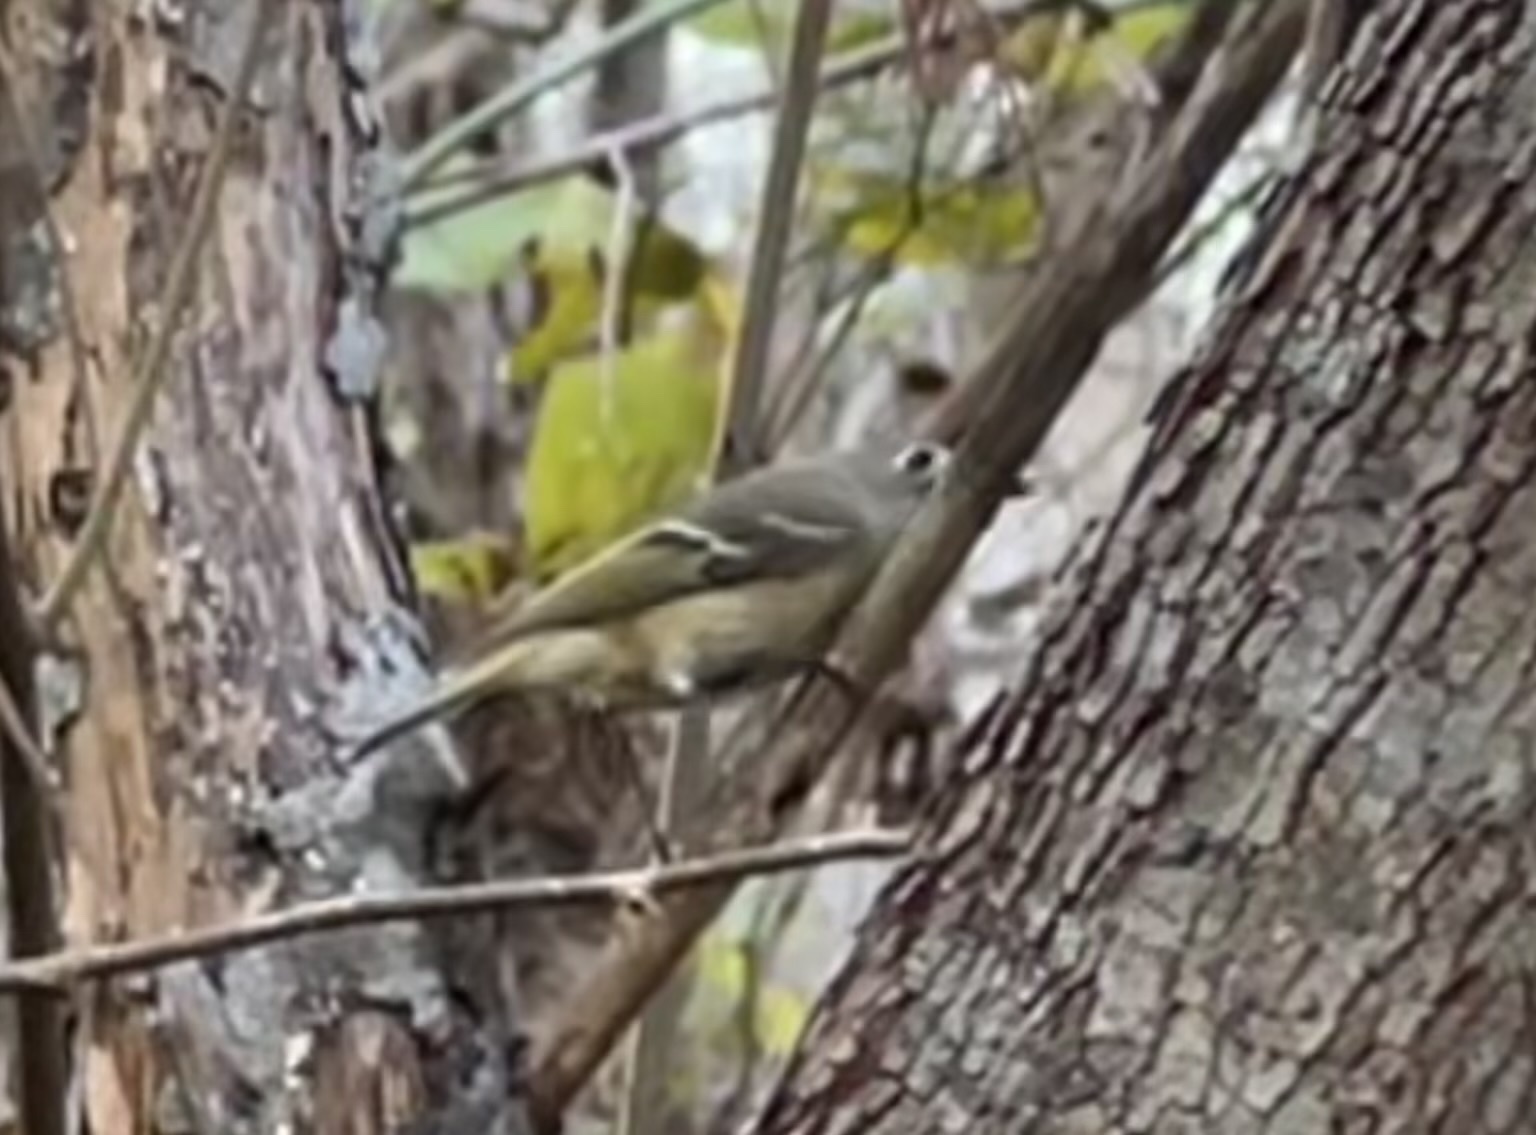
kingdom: Animalia
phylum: Chordata
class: Aves
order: Passeriformes
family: Regulidae
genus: Regulus
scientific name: Regulus calendula
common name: Ruby-crowned kinglet
